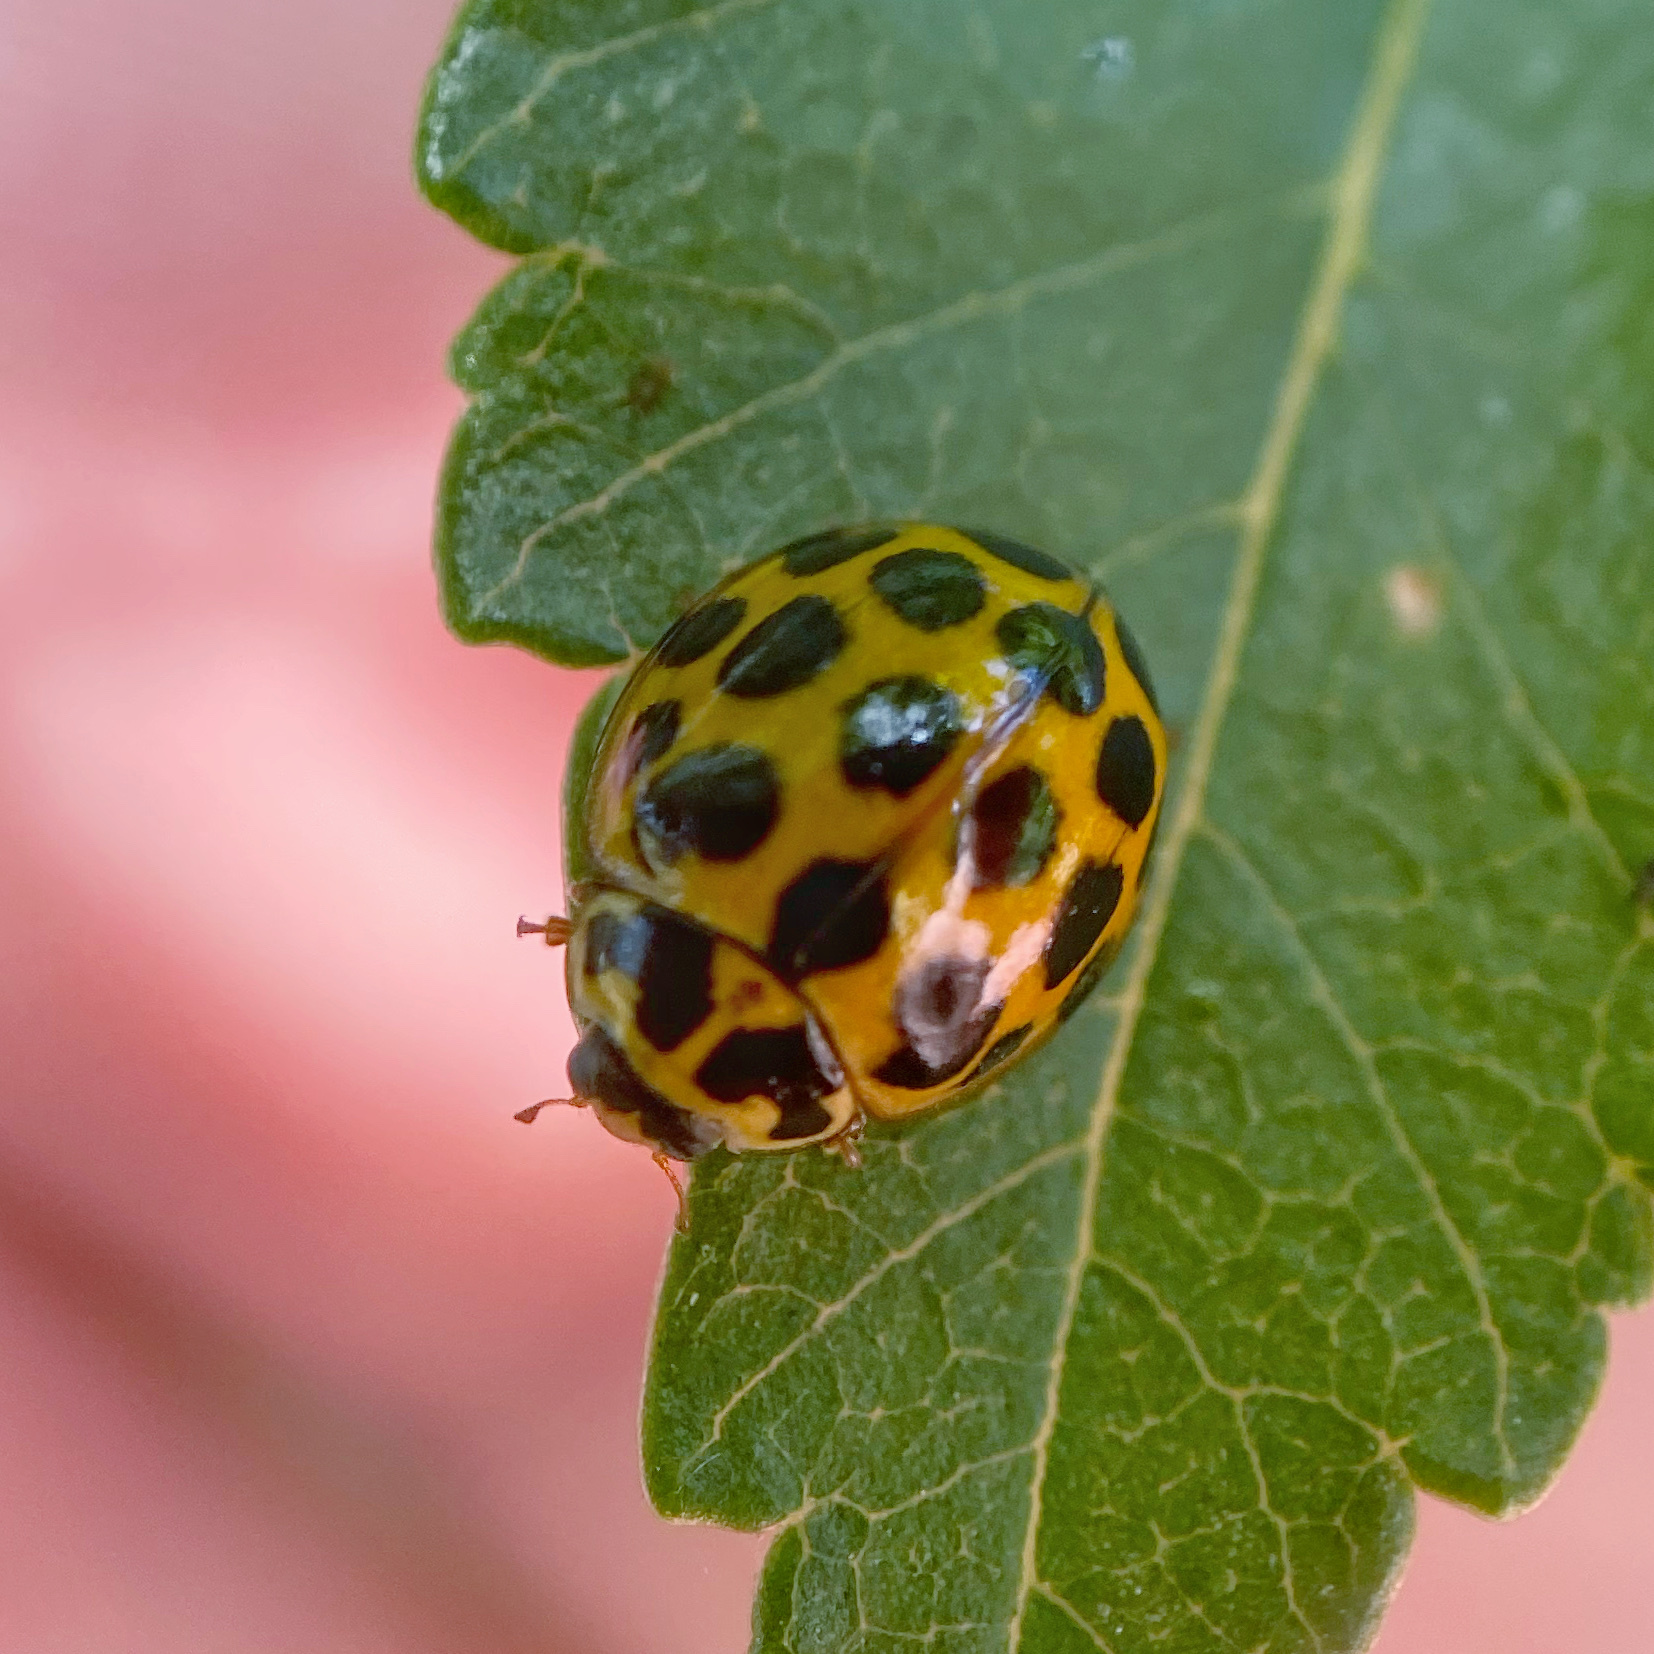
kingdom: Animalia
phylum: Arthropoda
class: Insecta
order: Coleoptera
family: Coccinellidae
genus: Harmonia
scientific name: Harmonia conformis
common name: Common spotted ladybird beetle
